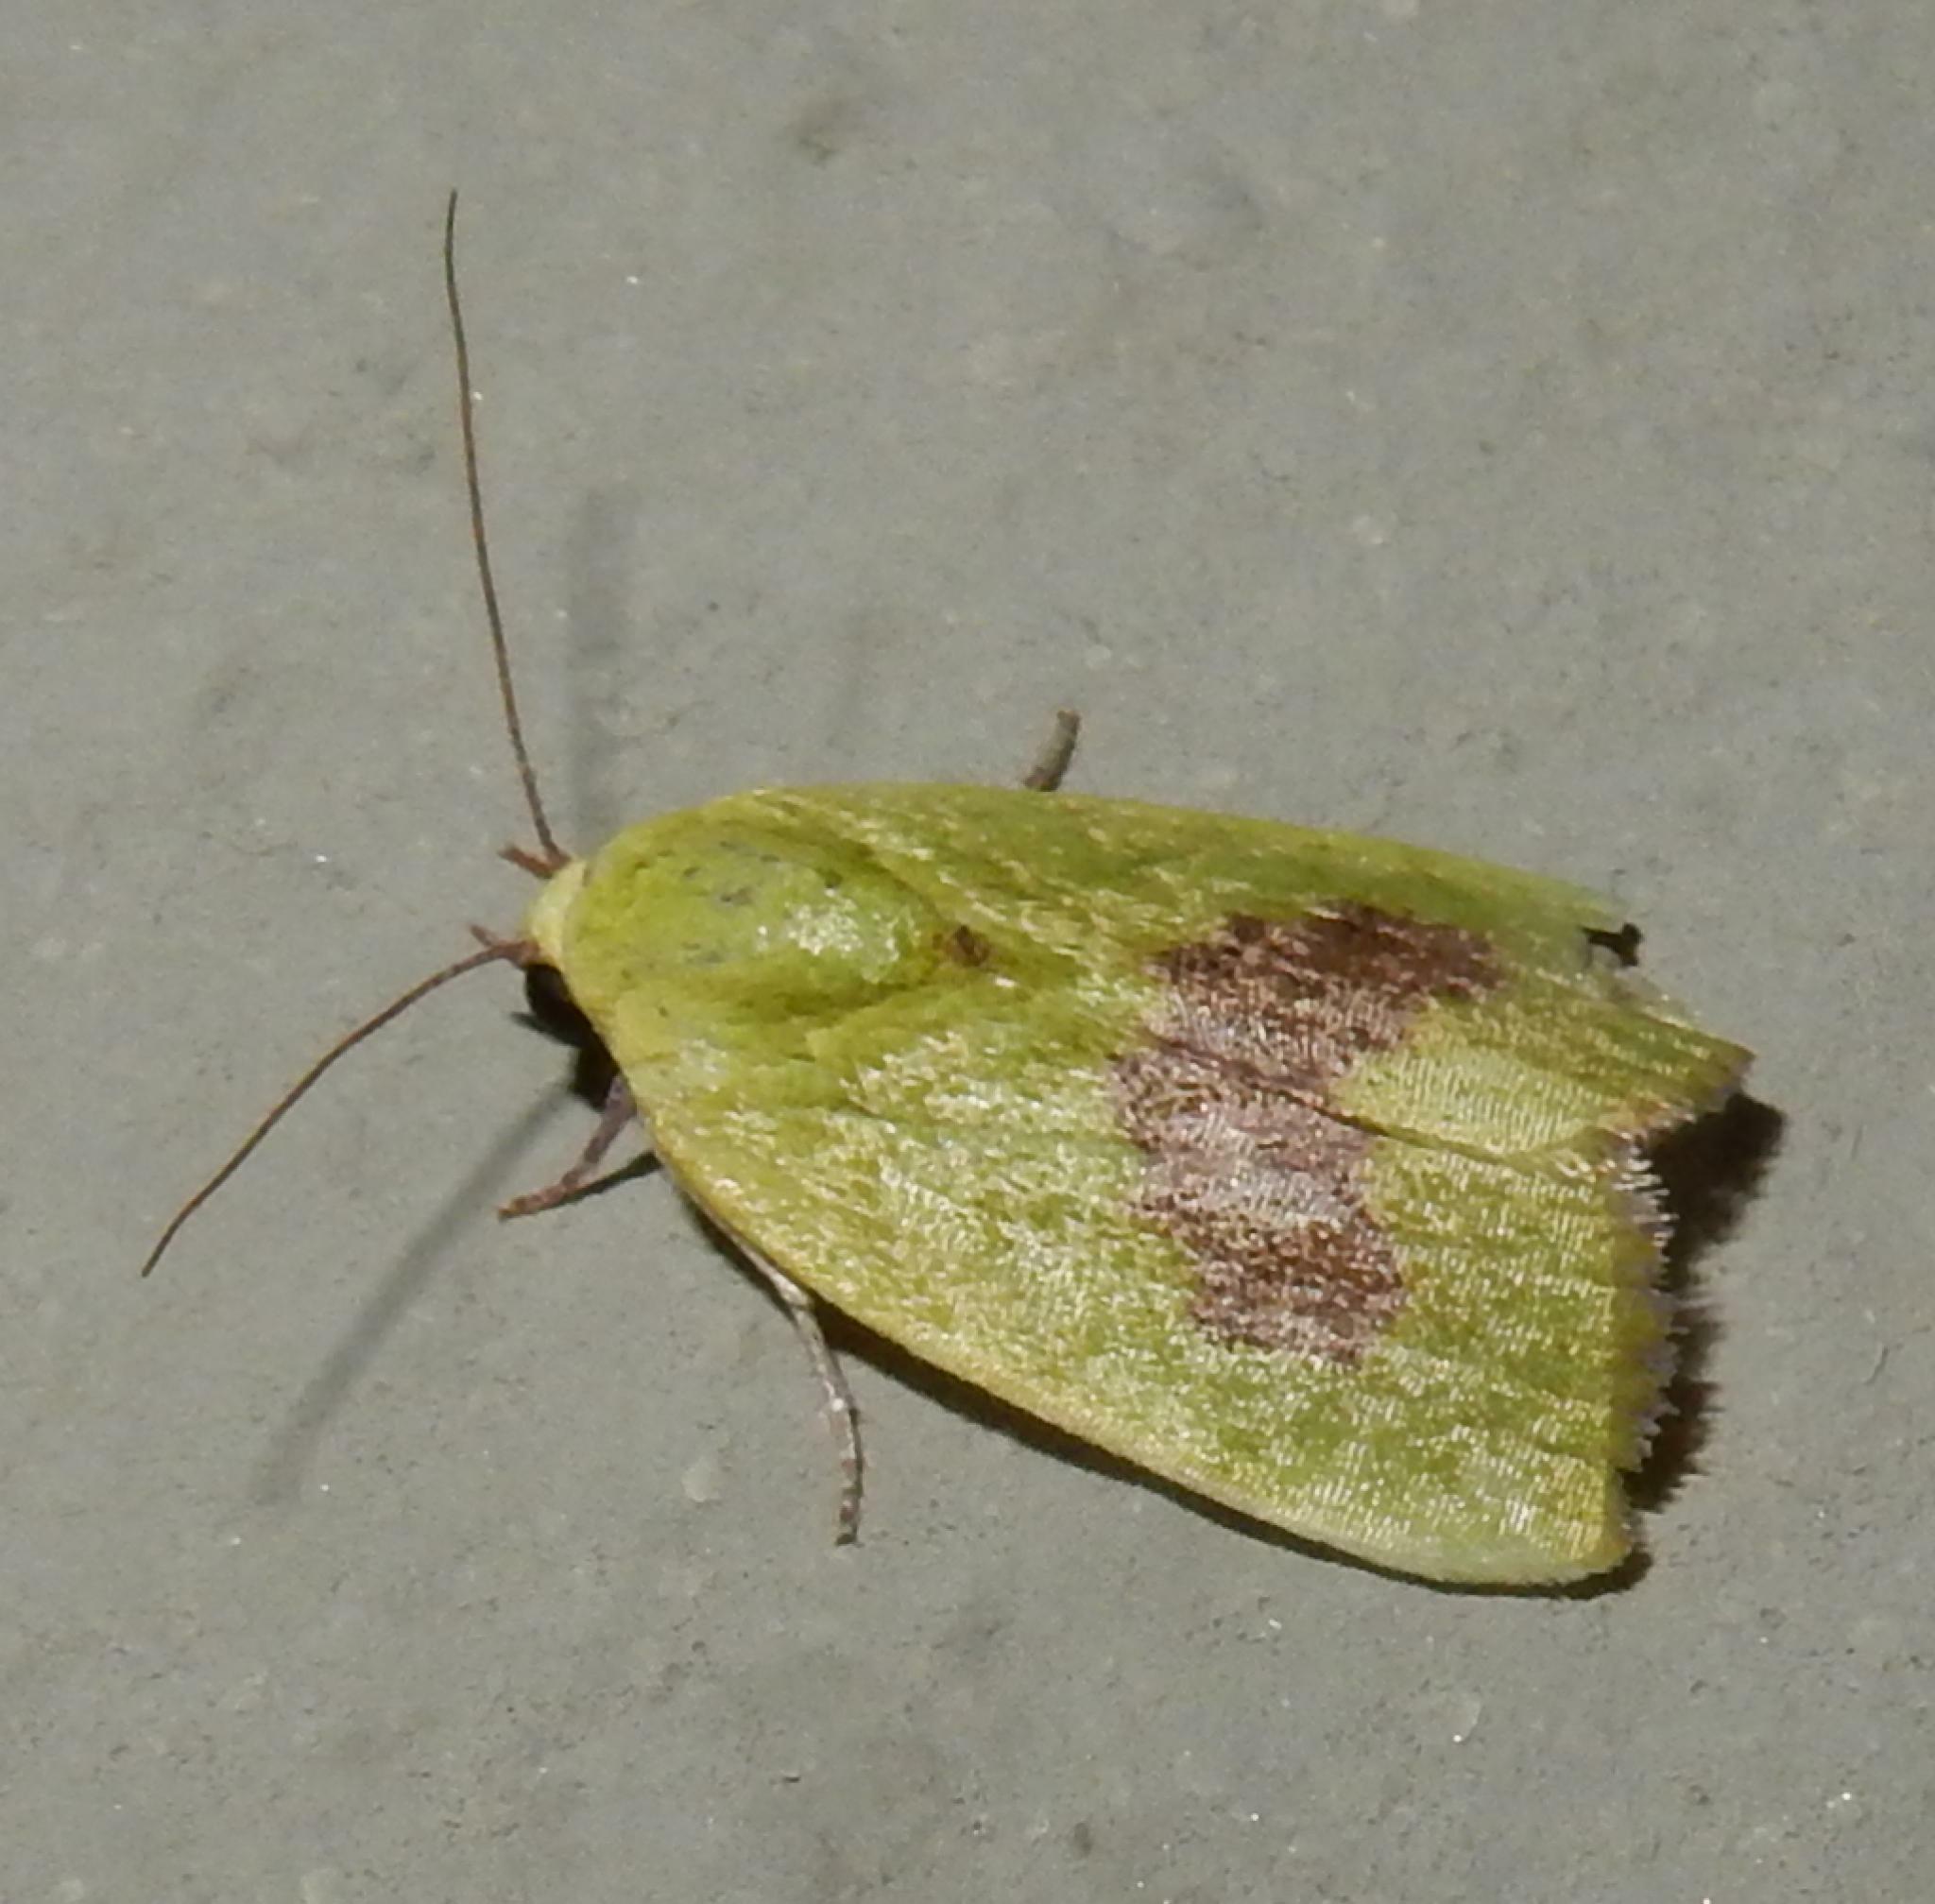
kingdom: Animalia
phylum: Arthropoda
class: Insecta
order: Lepidoptera
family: Nolidae
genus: Earias
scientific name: Earias biplaga
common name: Spiny bollworm
